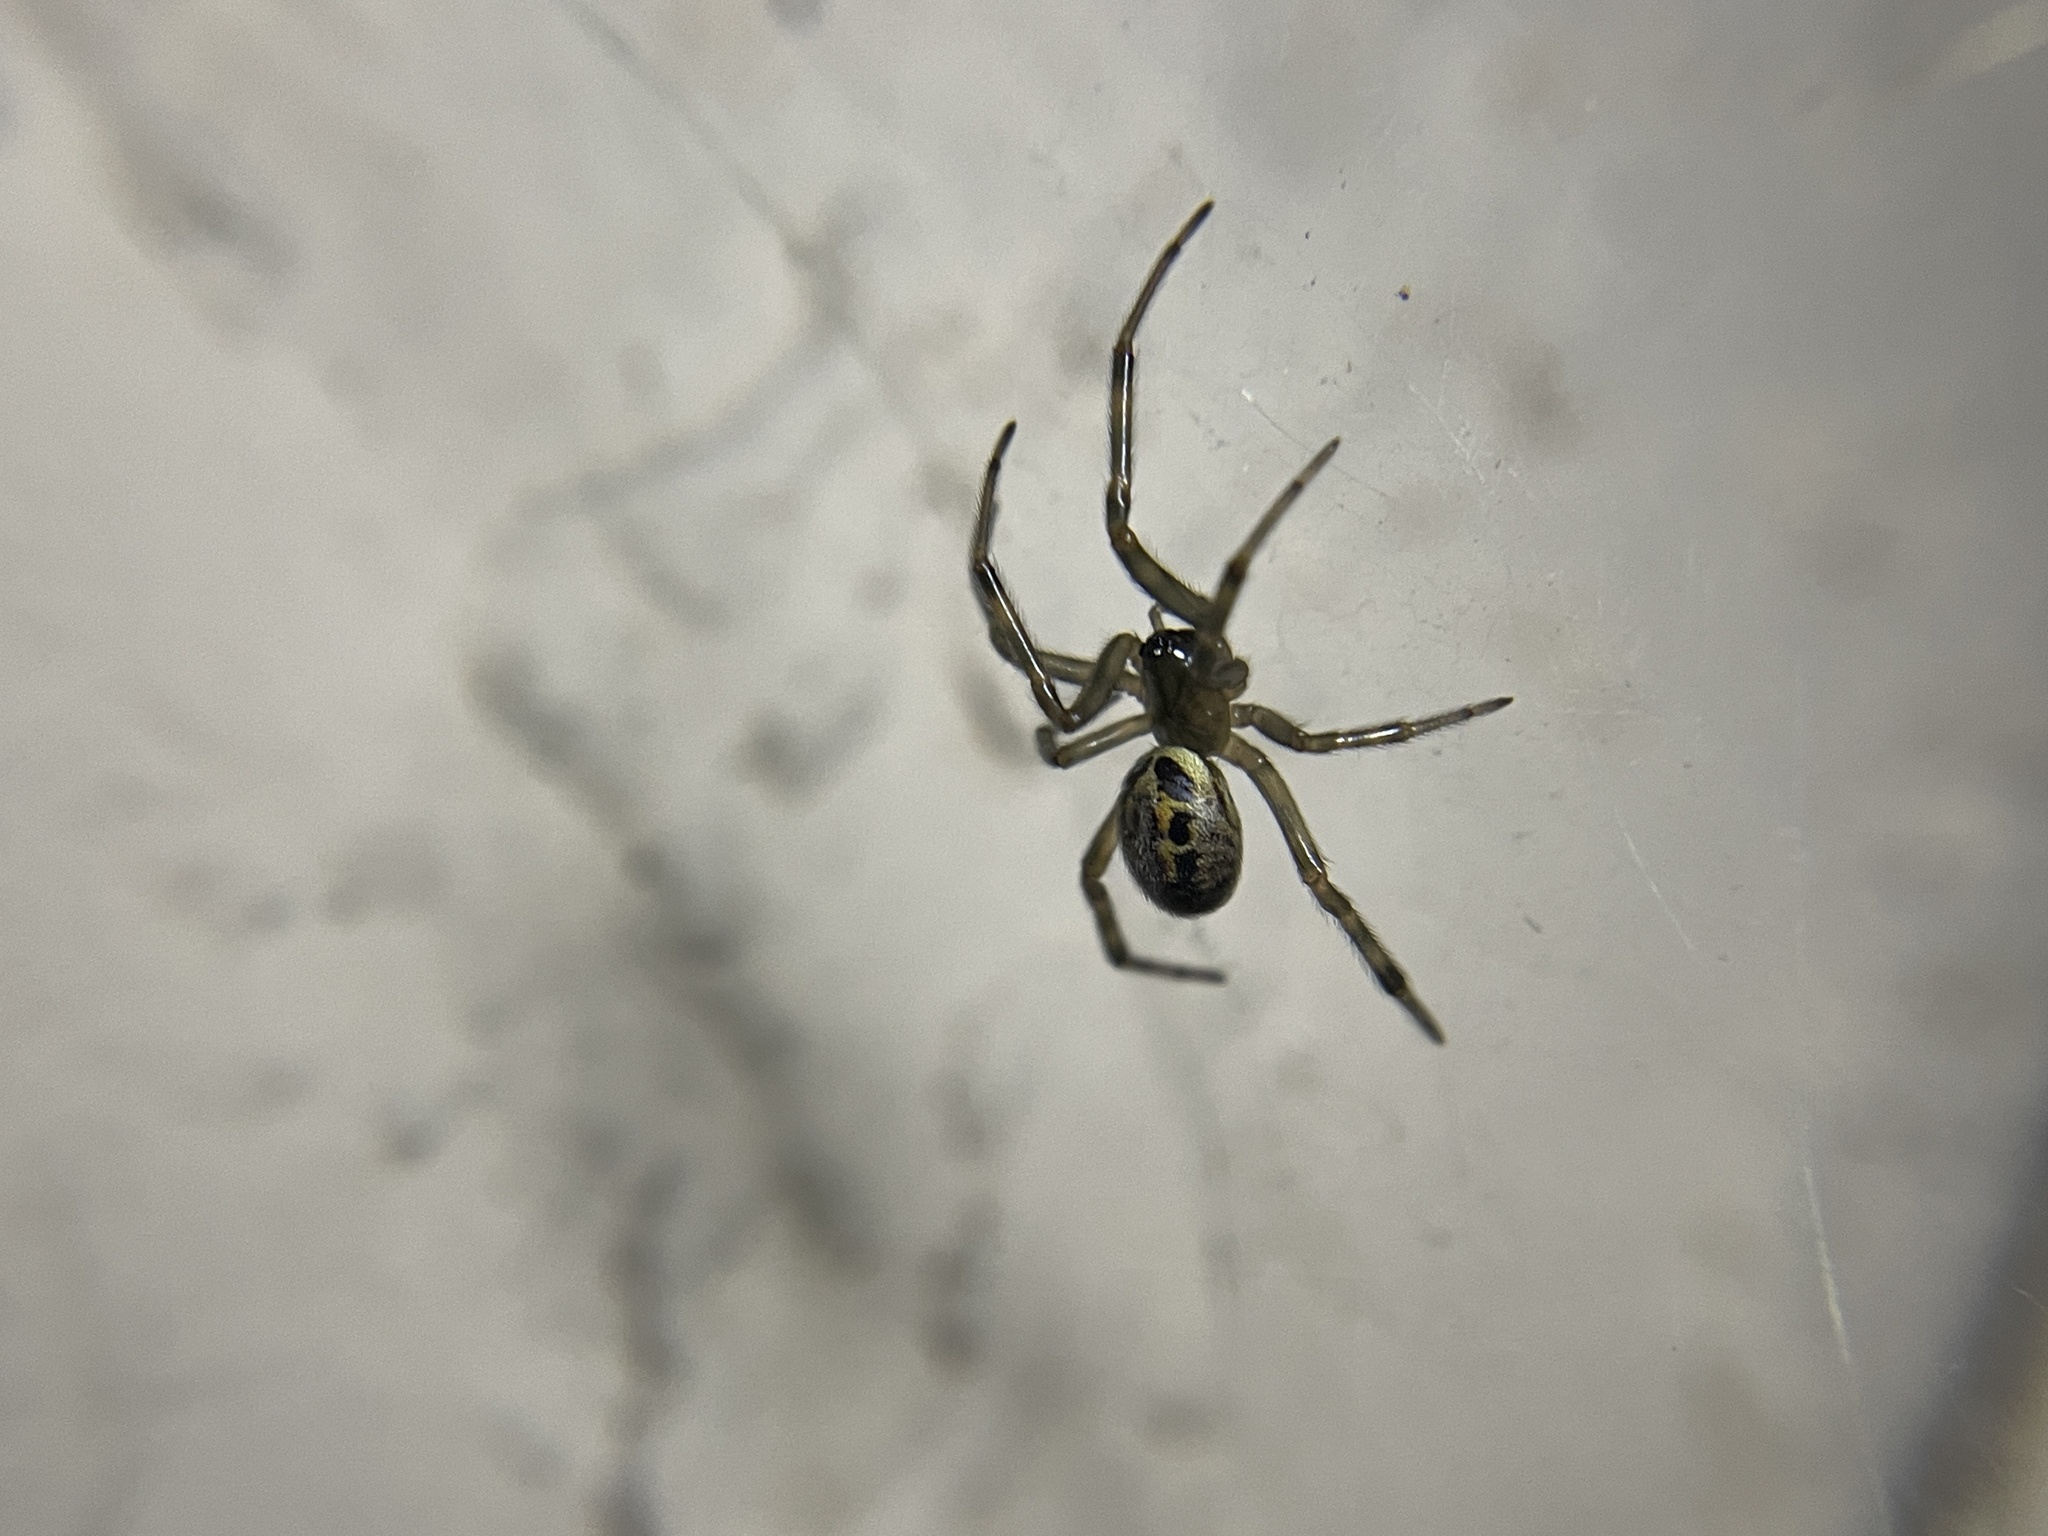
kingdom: Animalia
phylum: Arthropoda
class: Arachnida
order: Araneae
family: Theridiidae
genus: Steatoda
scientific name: Steatoda nobilis
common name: Cobweb weaver
